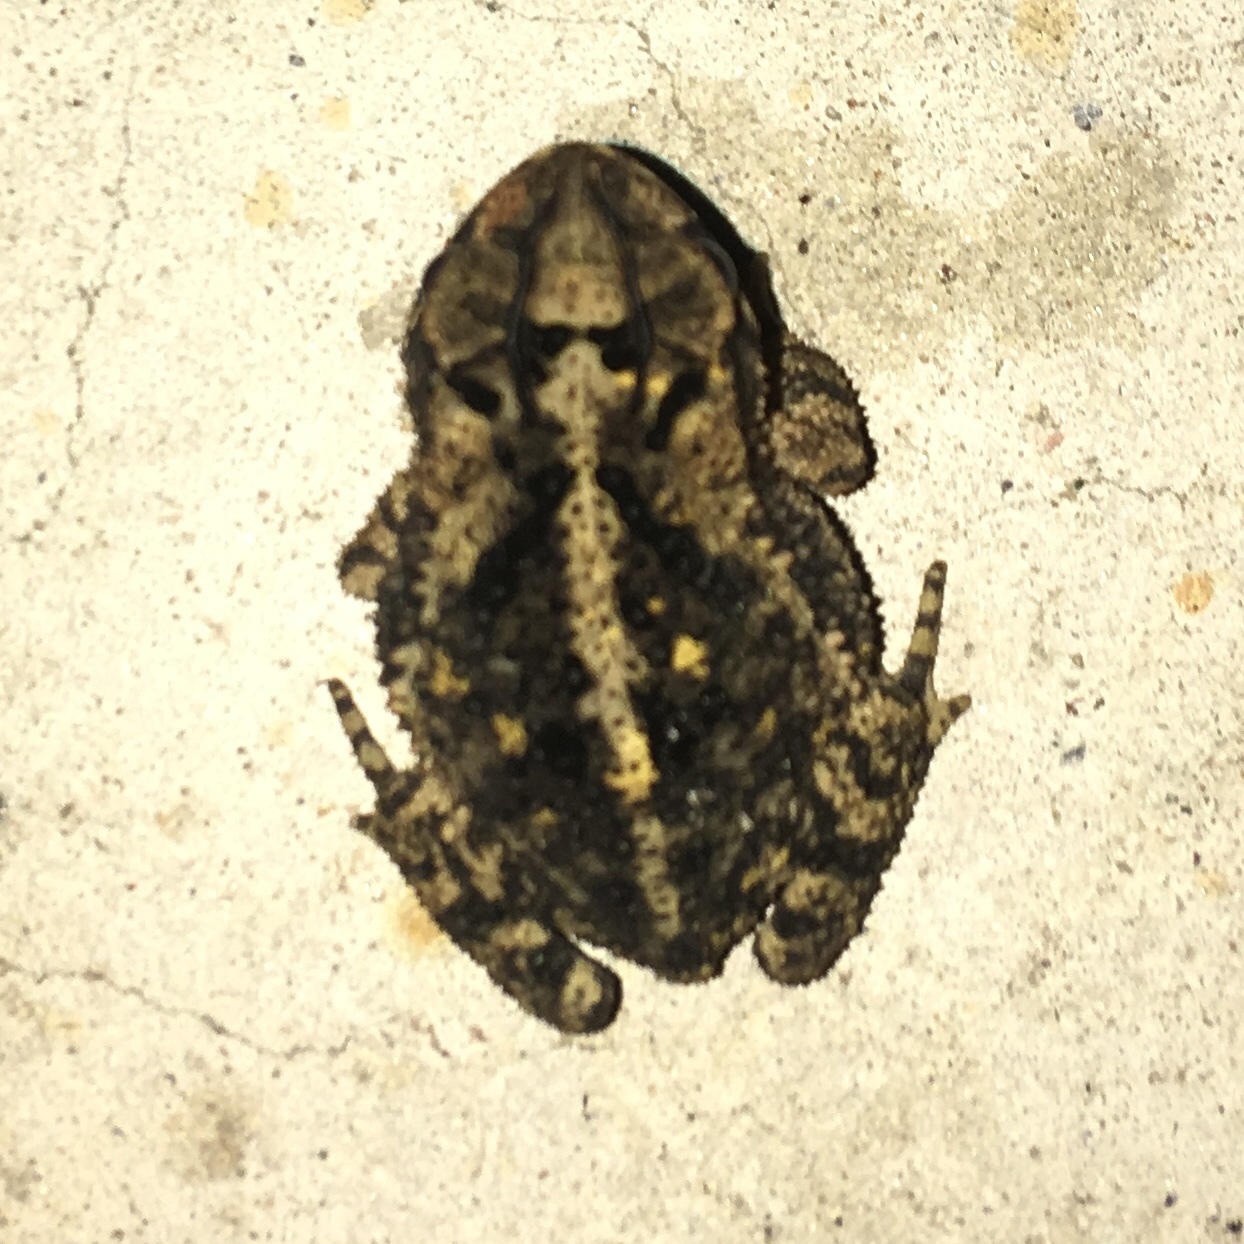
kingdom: Animalia
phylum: Chordata
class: Amphibia
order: Anura
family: Bufonidae
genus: Incilius
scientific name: Incilius nebulifer
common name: Gulf coast toad
